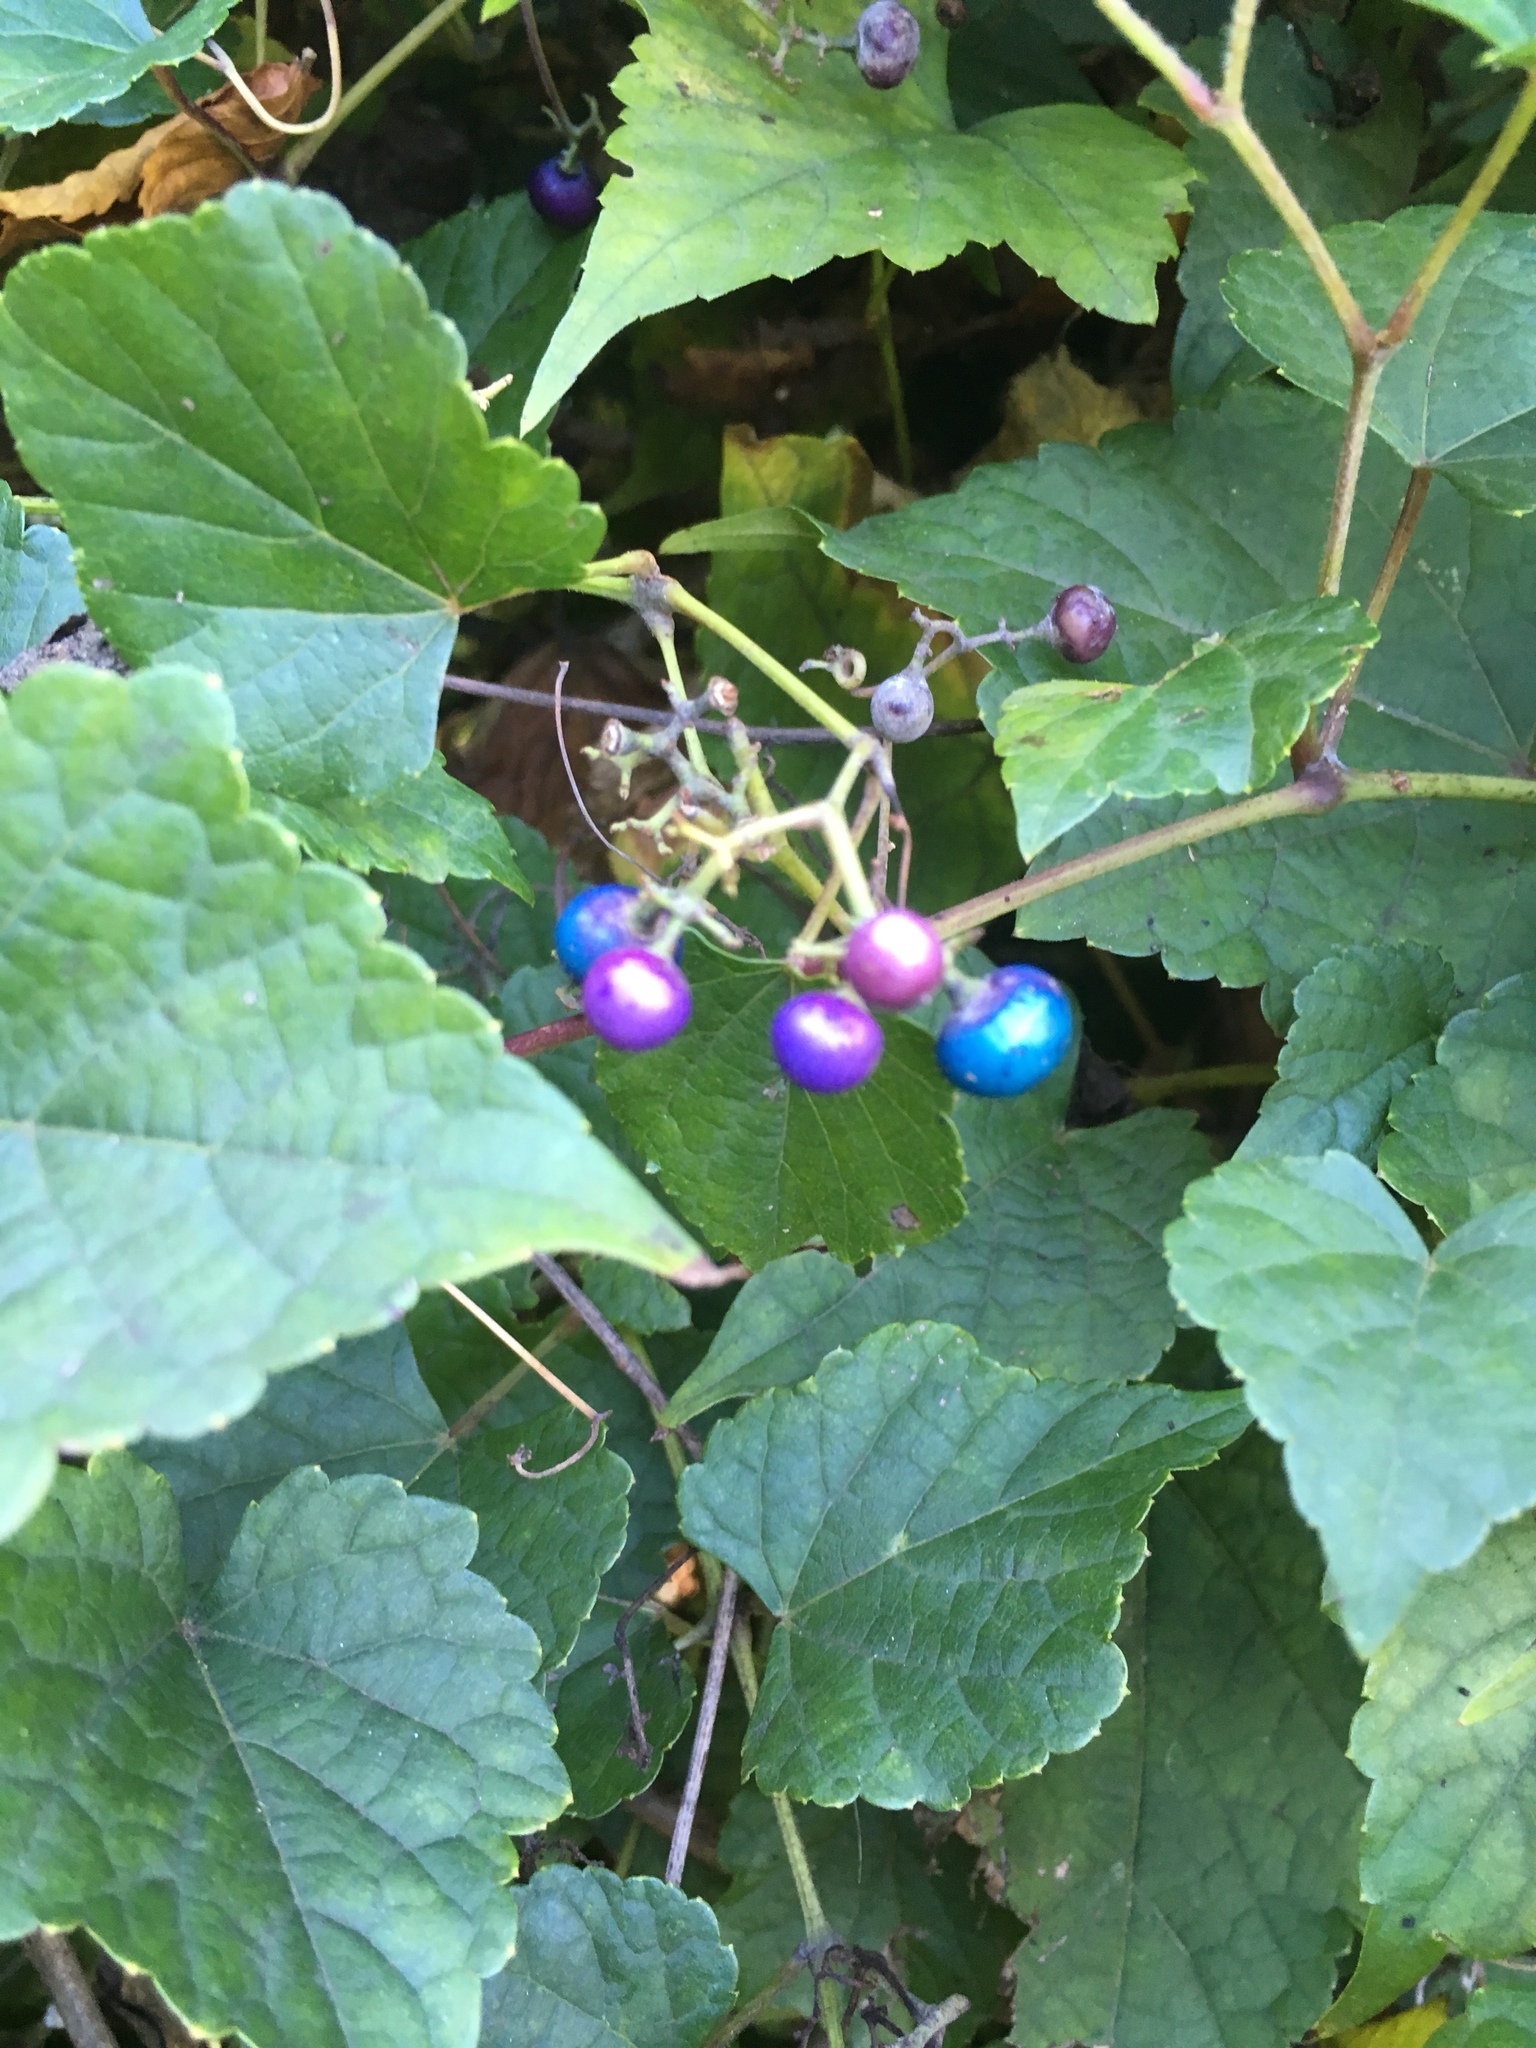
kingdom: Plantae
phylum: Tracheophyta
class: Magnoliopsida
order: Vitales
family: Vitaceae
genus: Ampelopsis
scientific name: Ampelopsis glandulosa
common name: Amur peppervine
